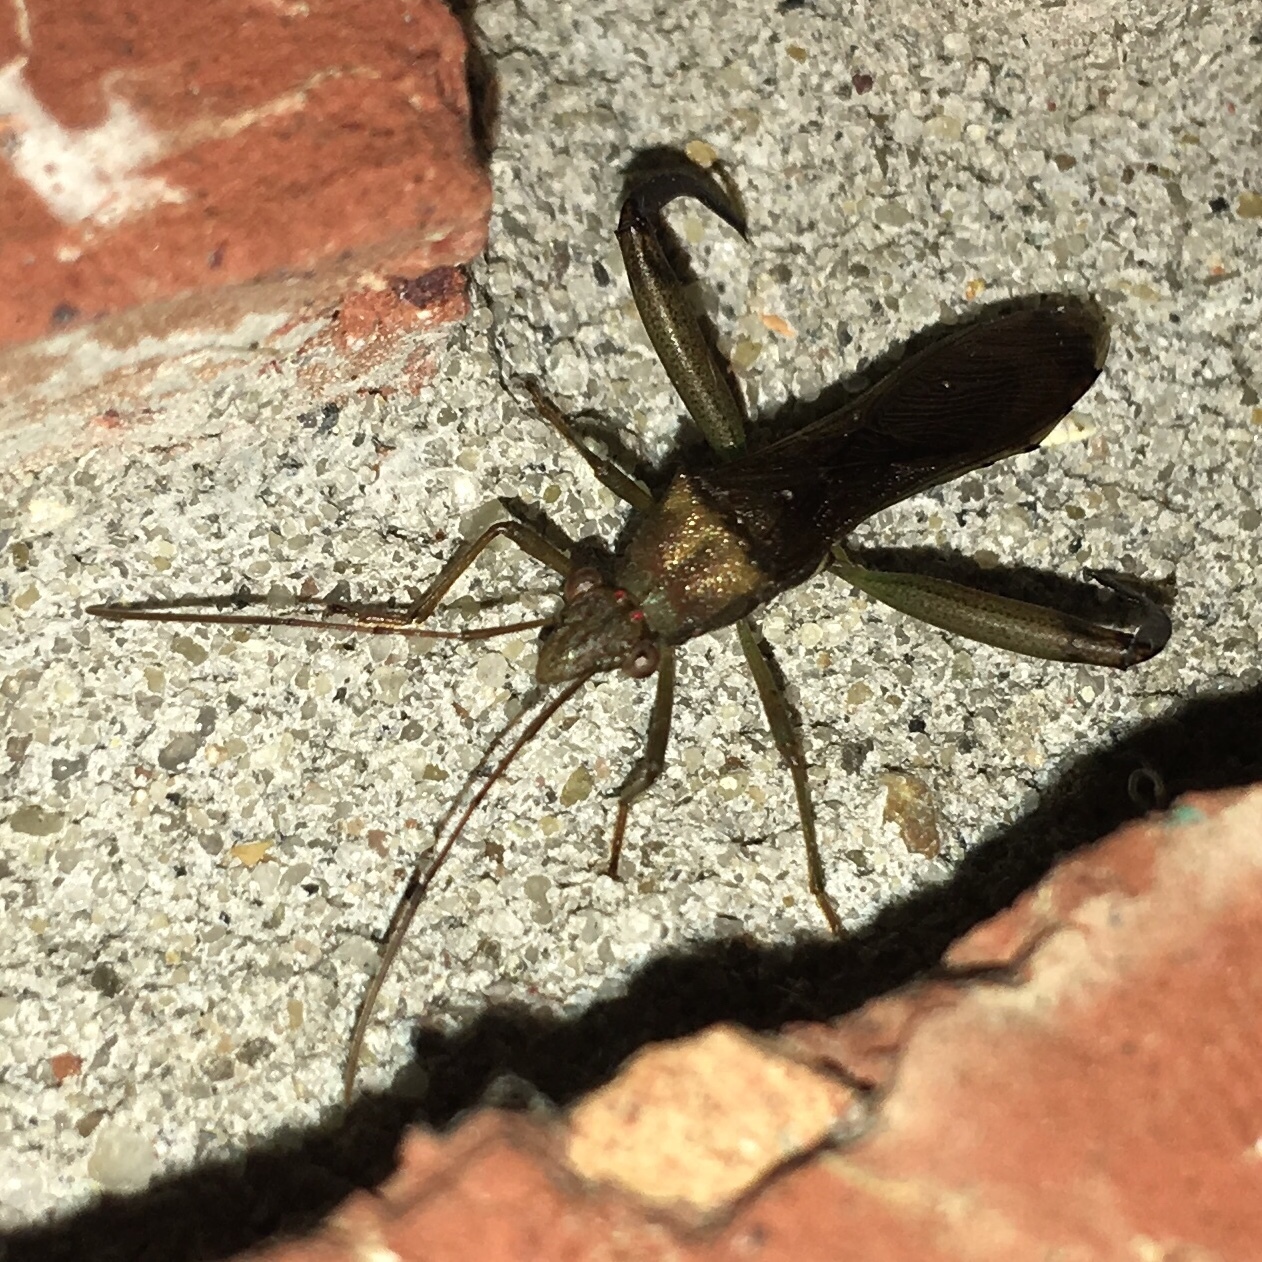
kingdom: Animalia
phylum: Arthropoda
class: Insecta
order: Hemiptera
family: Alydidae
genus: Hyalymenus
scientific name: Hyalymenus tarsatus
